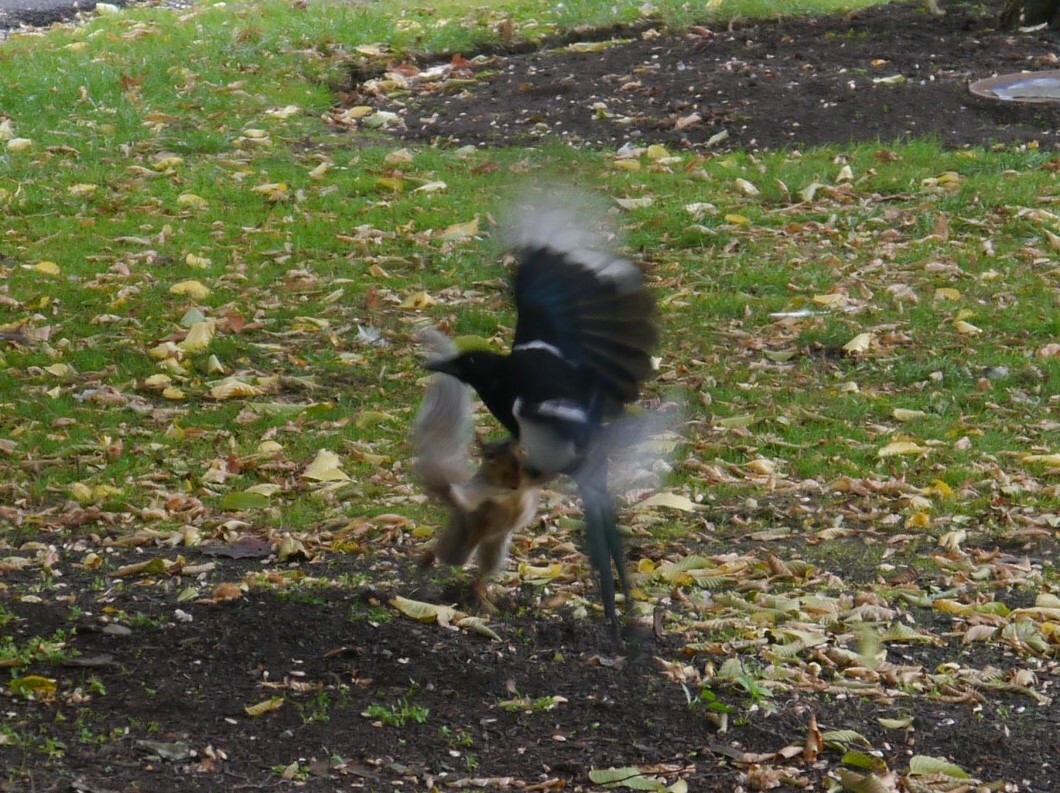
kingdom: Animalia
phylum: Chordata
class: Mammalia
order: Rodentia
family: Sciuridae
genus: Sciurus
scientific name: Sciurus carolinensis
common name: Eastern gray squirrel
